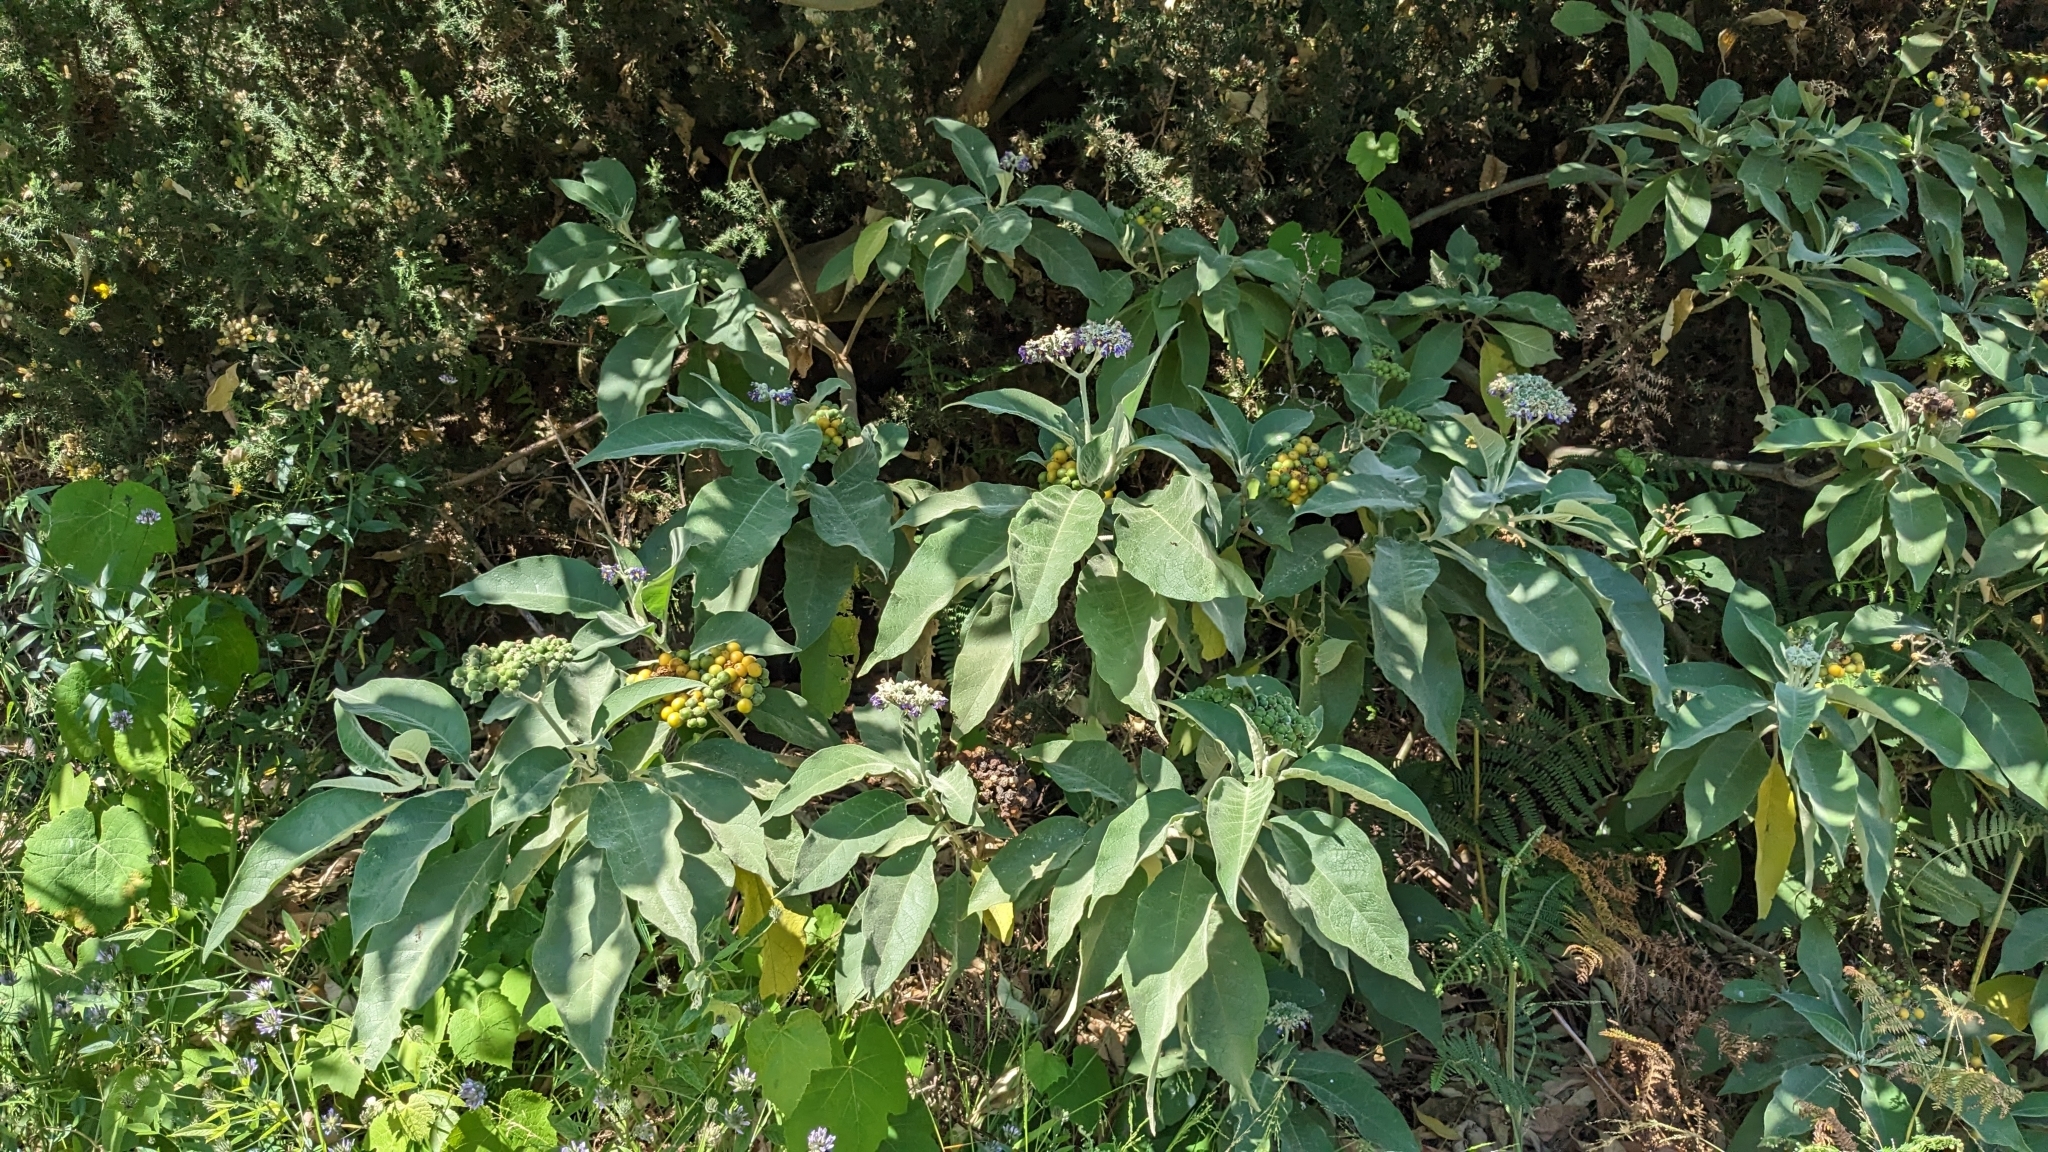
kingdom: Plantae
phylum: Tracheophyta
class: Magnoliopsida
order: Solanales
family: Solanaceae
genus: Solanum
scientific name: Solanum mauritianum
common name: Earleaf nightshade
